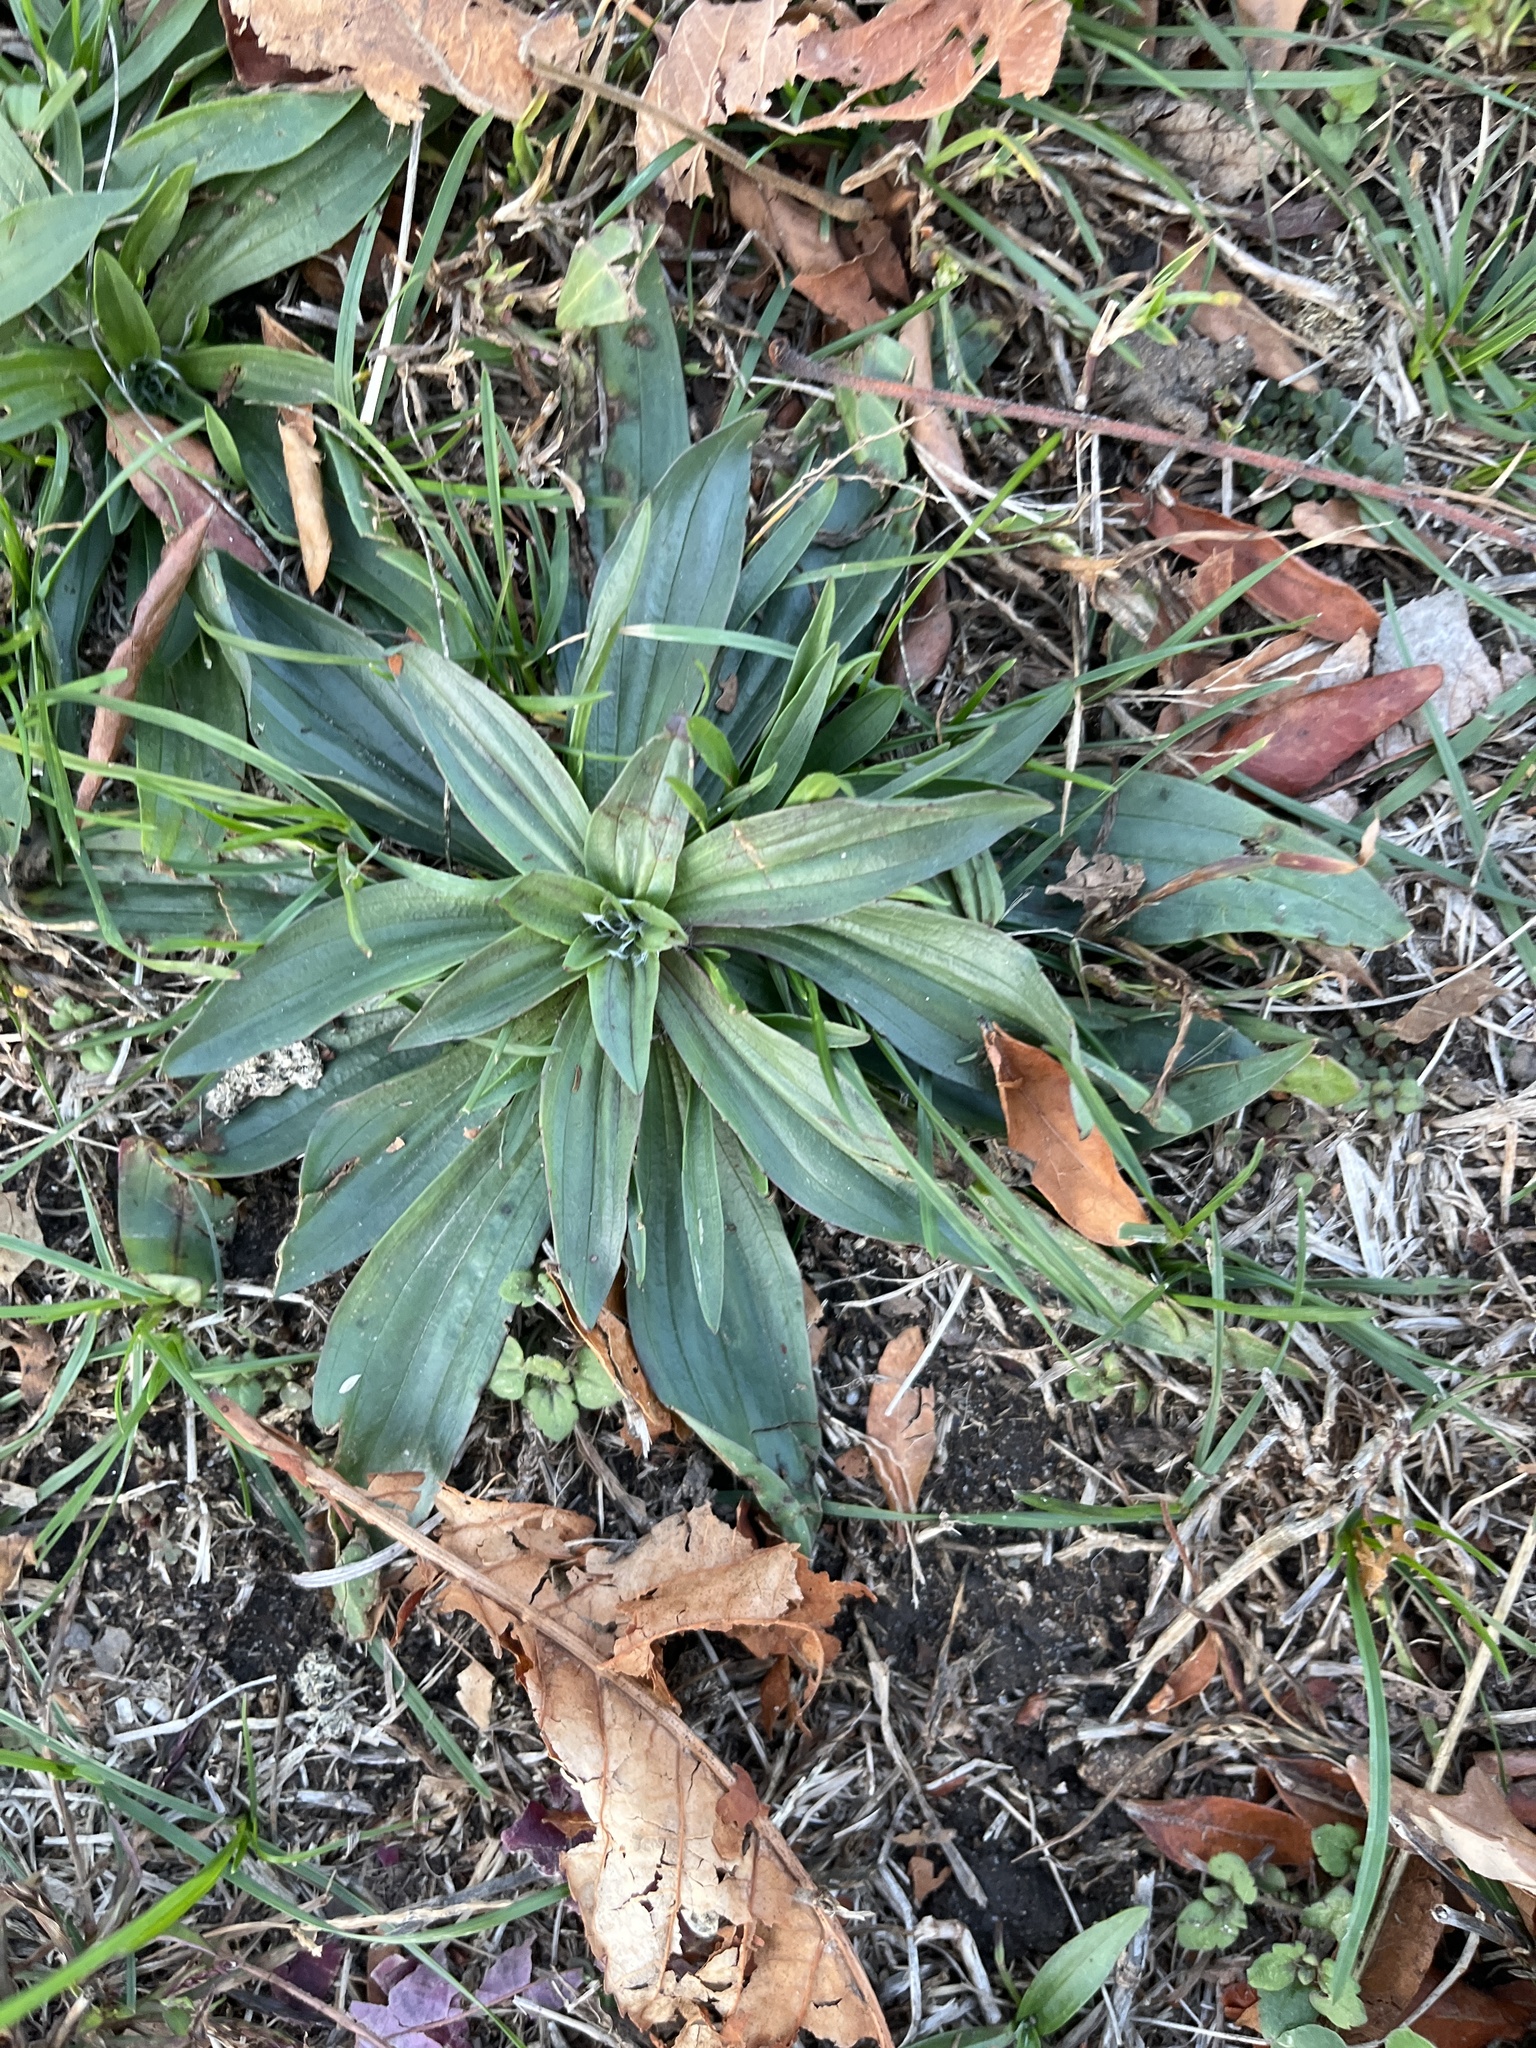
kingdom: Plantae
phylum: Tracheophyta
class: Magnoliopsida
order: Lamiales
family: Plantaginaceae
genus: Plantago
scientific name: Plantago lanceolata
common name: Ribwort plantain
